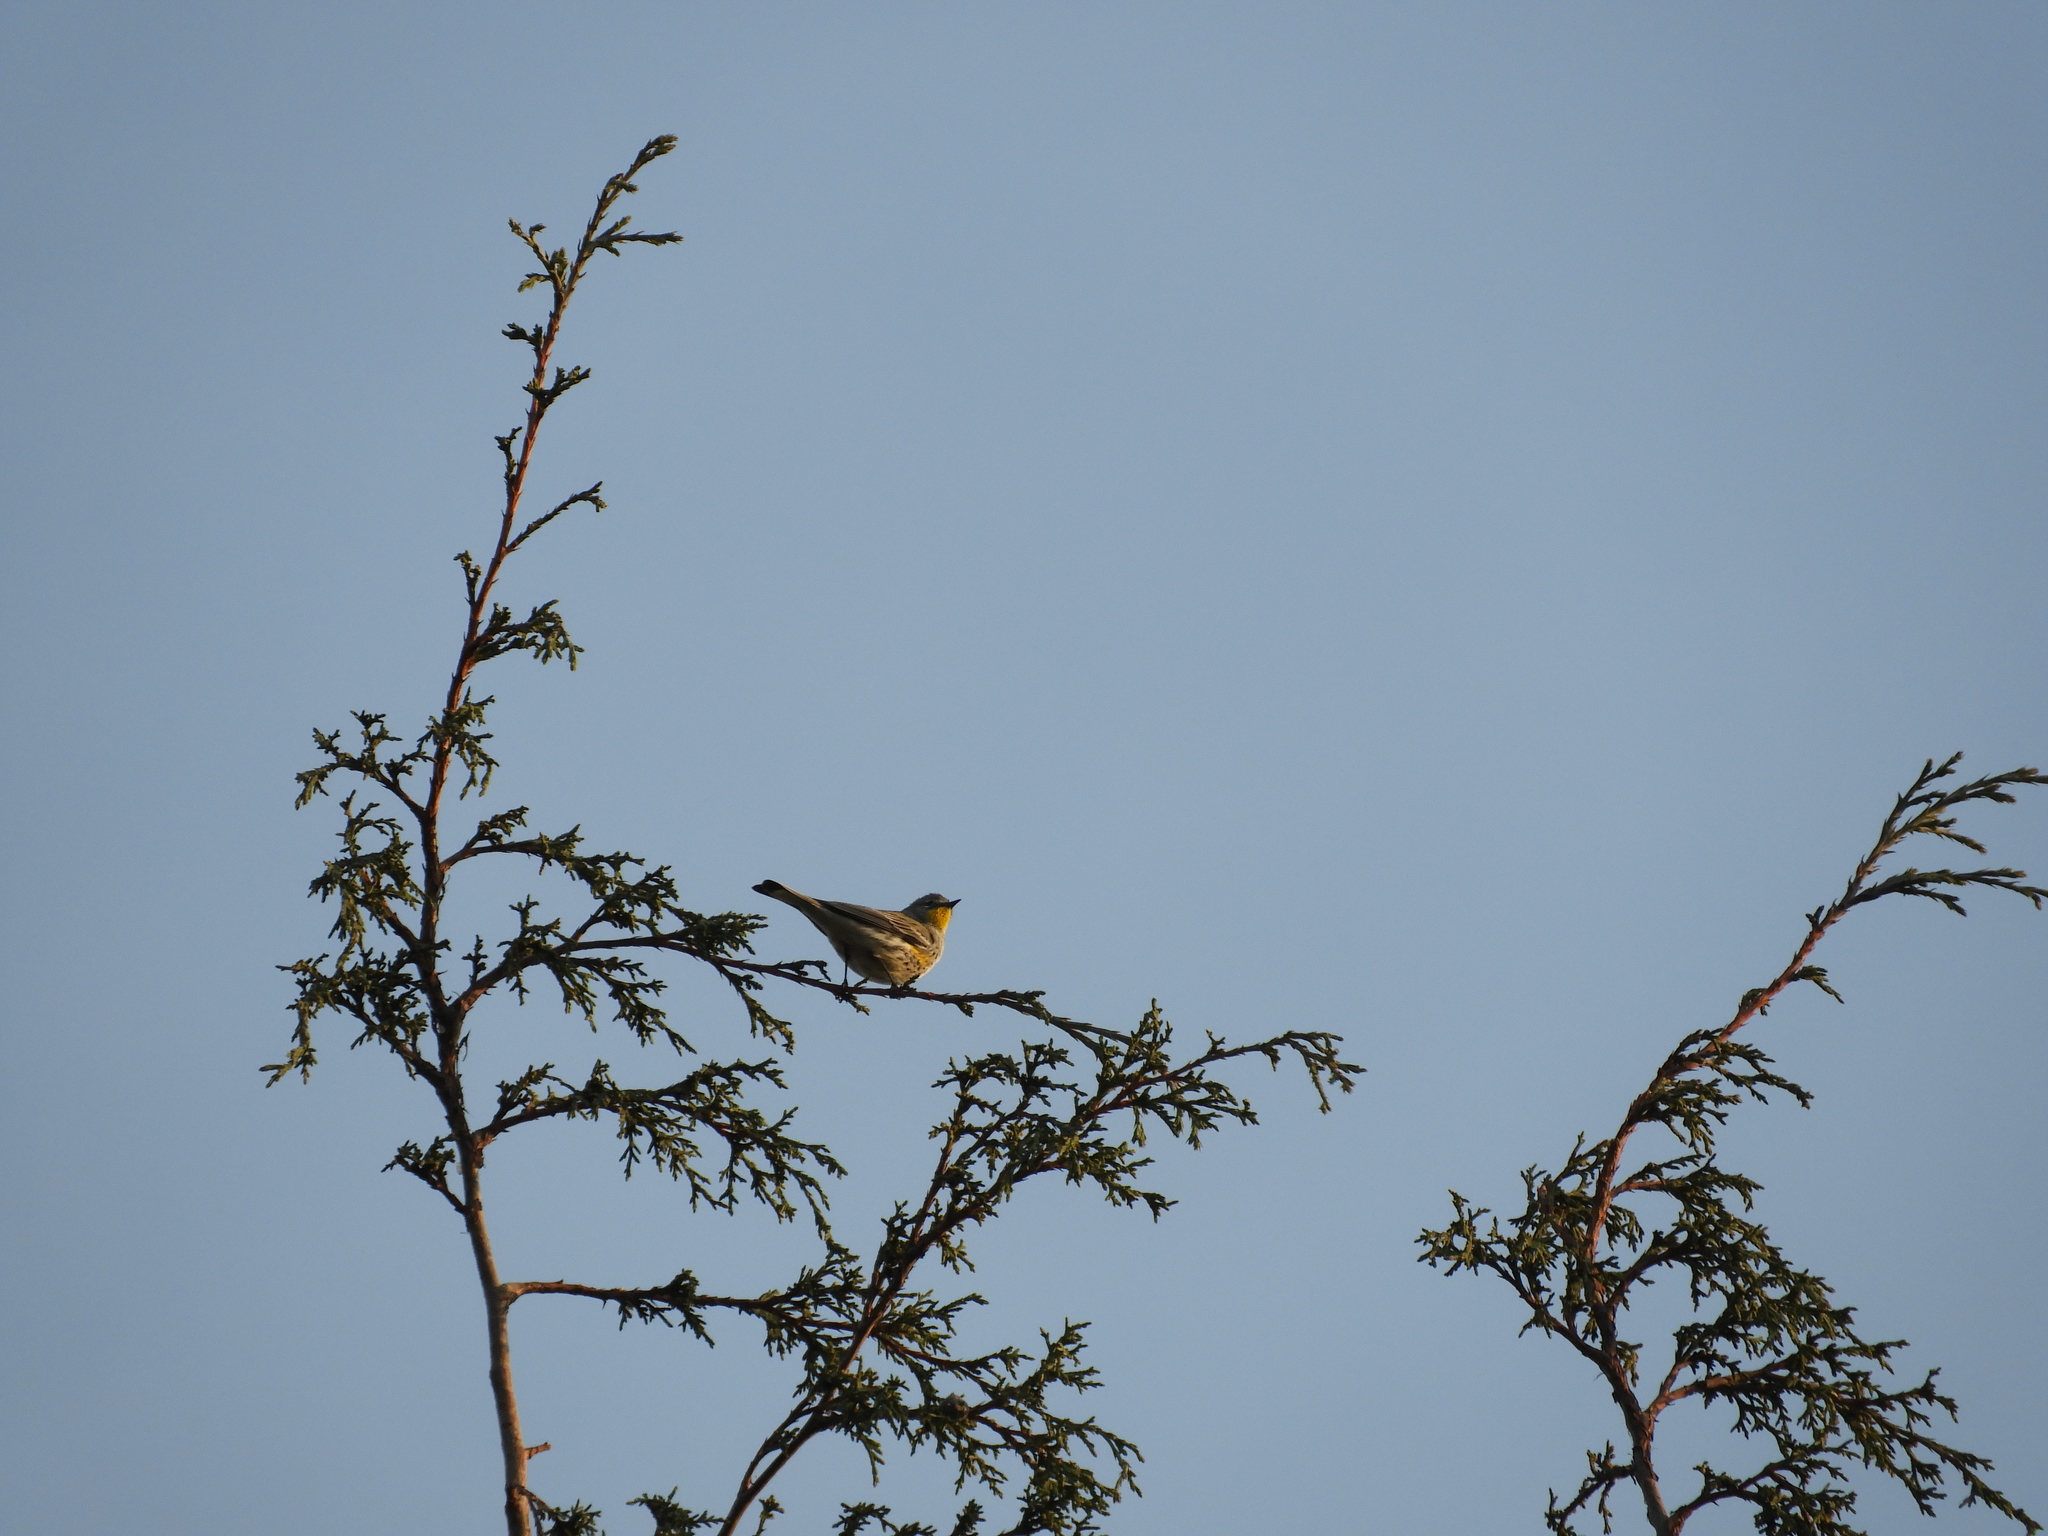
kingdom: Animalia
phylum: Chordata
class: Aves
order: Passeriformes
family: Parulidae
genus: Setophaga
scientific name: Setophaga auduboni
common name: Audubon's warbler
